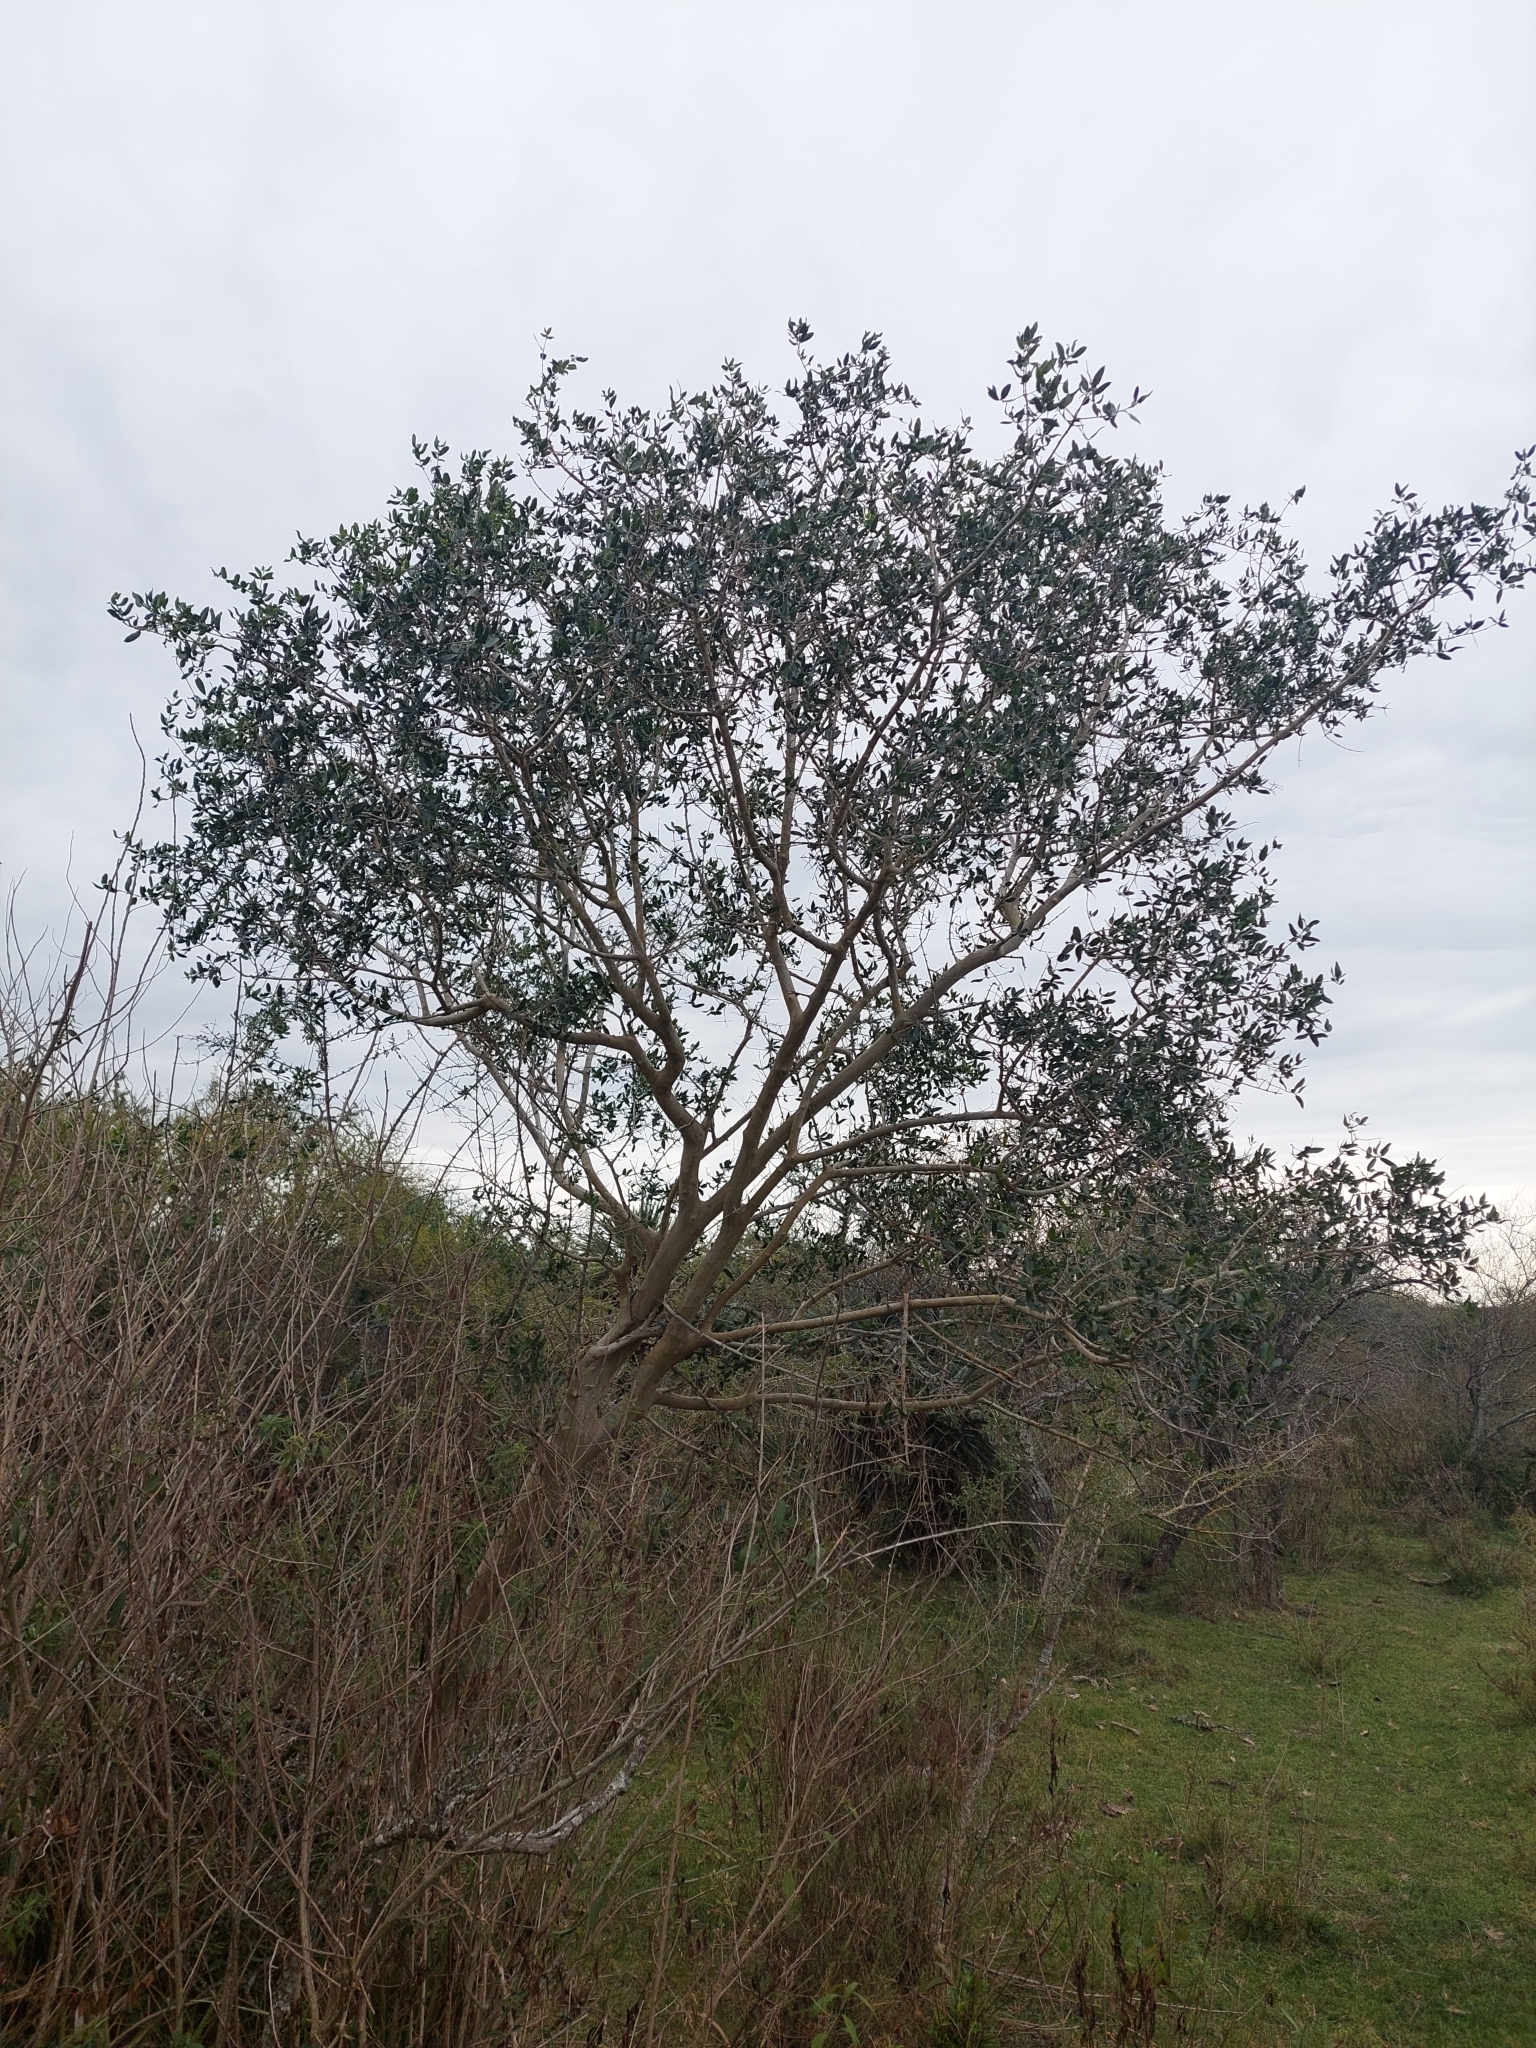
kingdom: Plantae
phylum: Tracheophyta
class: Magnoliopsida
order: Myrtales
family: Myrtaceae
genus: Myrcianthes
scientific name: Myrcianthes cisplatensis
